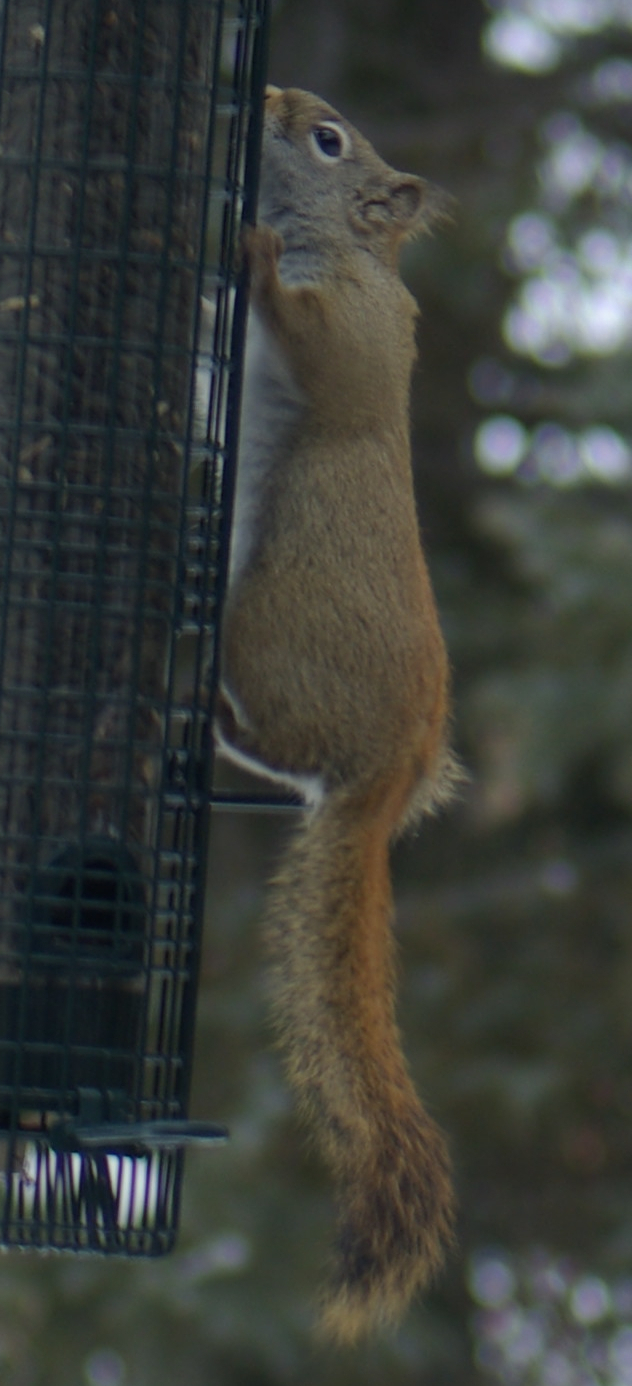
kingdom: Animalia
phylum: Chordata
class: Mammalia
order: Rodentia
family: Sciuridae
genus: Tamiasciurus
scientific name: Tamiasciurus hudsonicus
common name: Red squirrel
